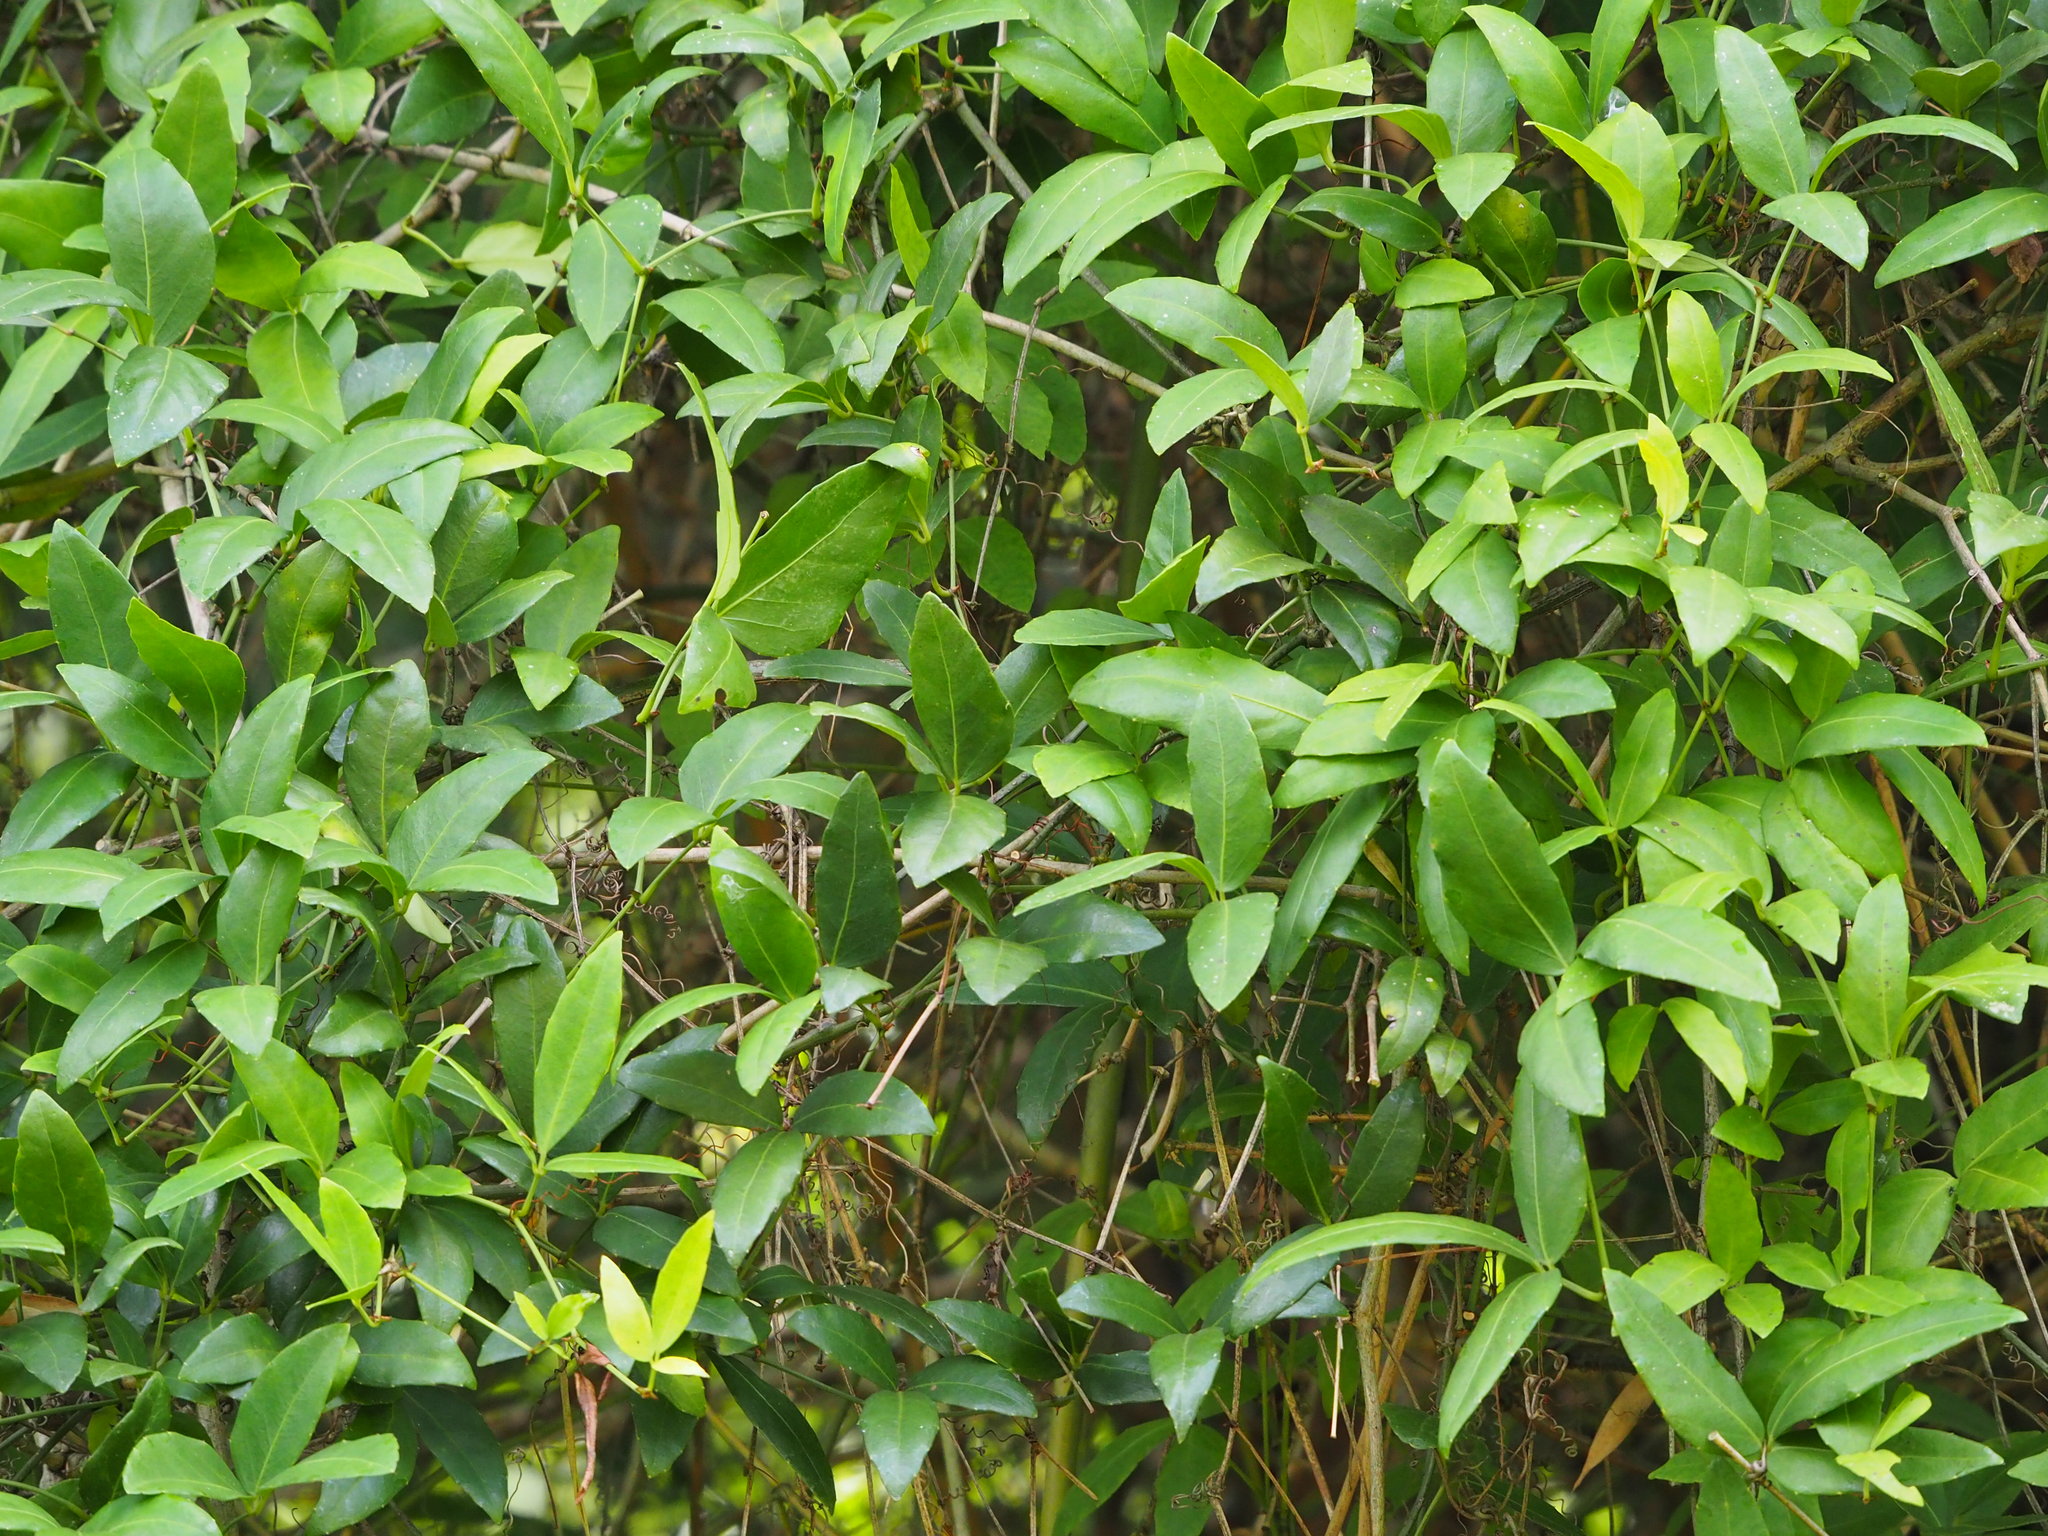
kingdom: Plantae
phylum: Tracheophyta
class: Magnoliopsida
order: Vitales
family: Vitaceae
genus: Tetrastigma
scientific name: Tetrastigma formosanum
